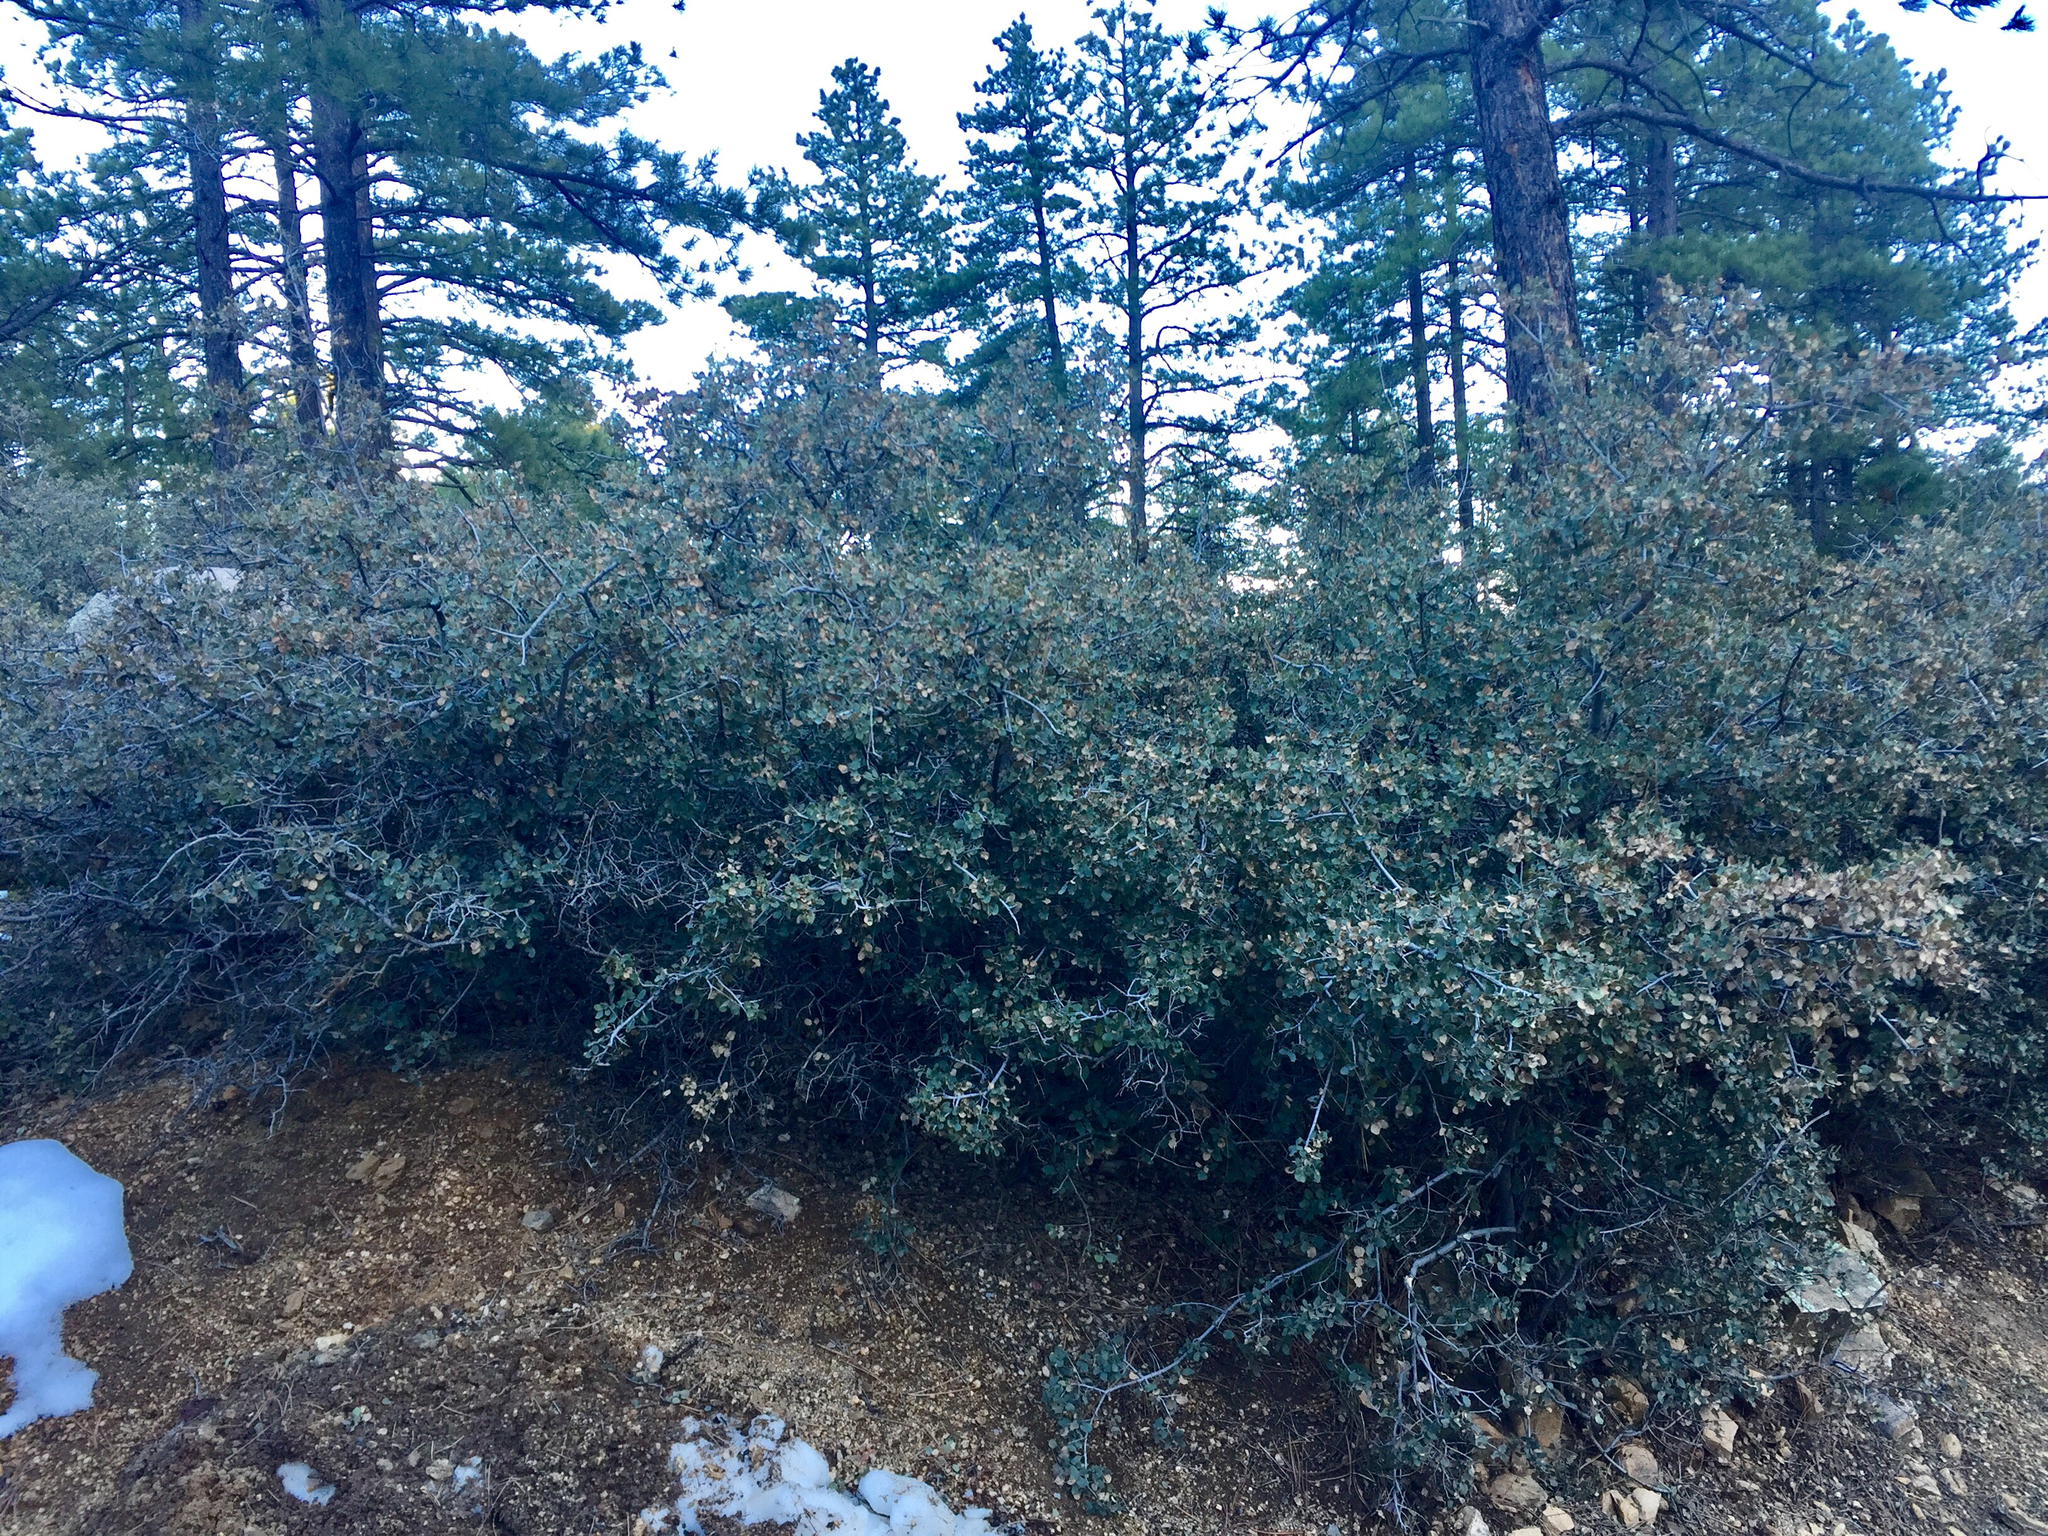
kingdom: Plantae
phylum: Tracheophyta
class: Magnoliopsida
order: Fagales
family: Fagaceae
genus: Quercus
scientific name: Quercus turbinella
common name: Sonoran scrub oak
